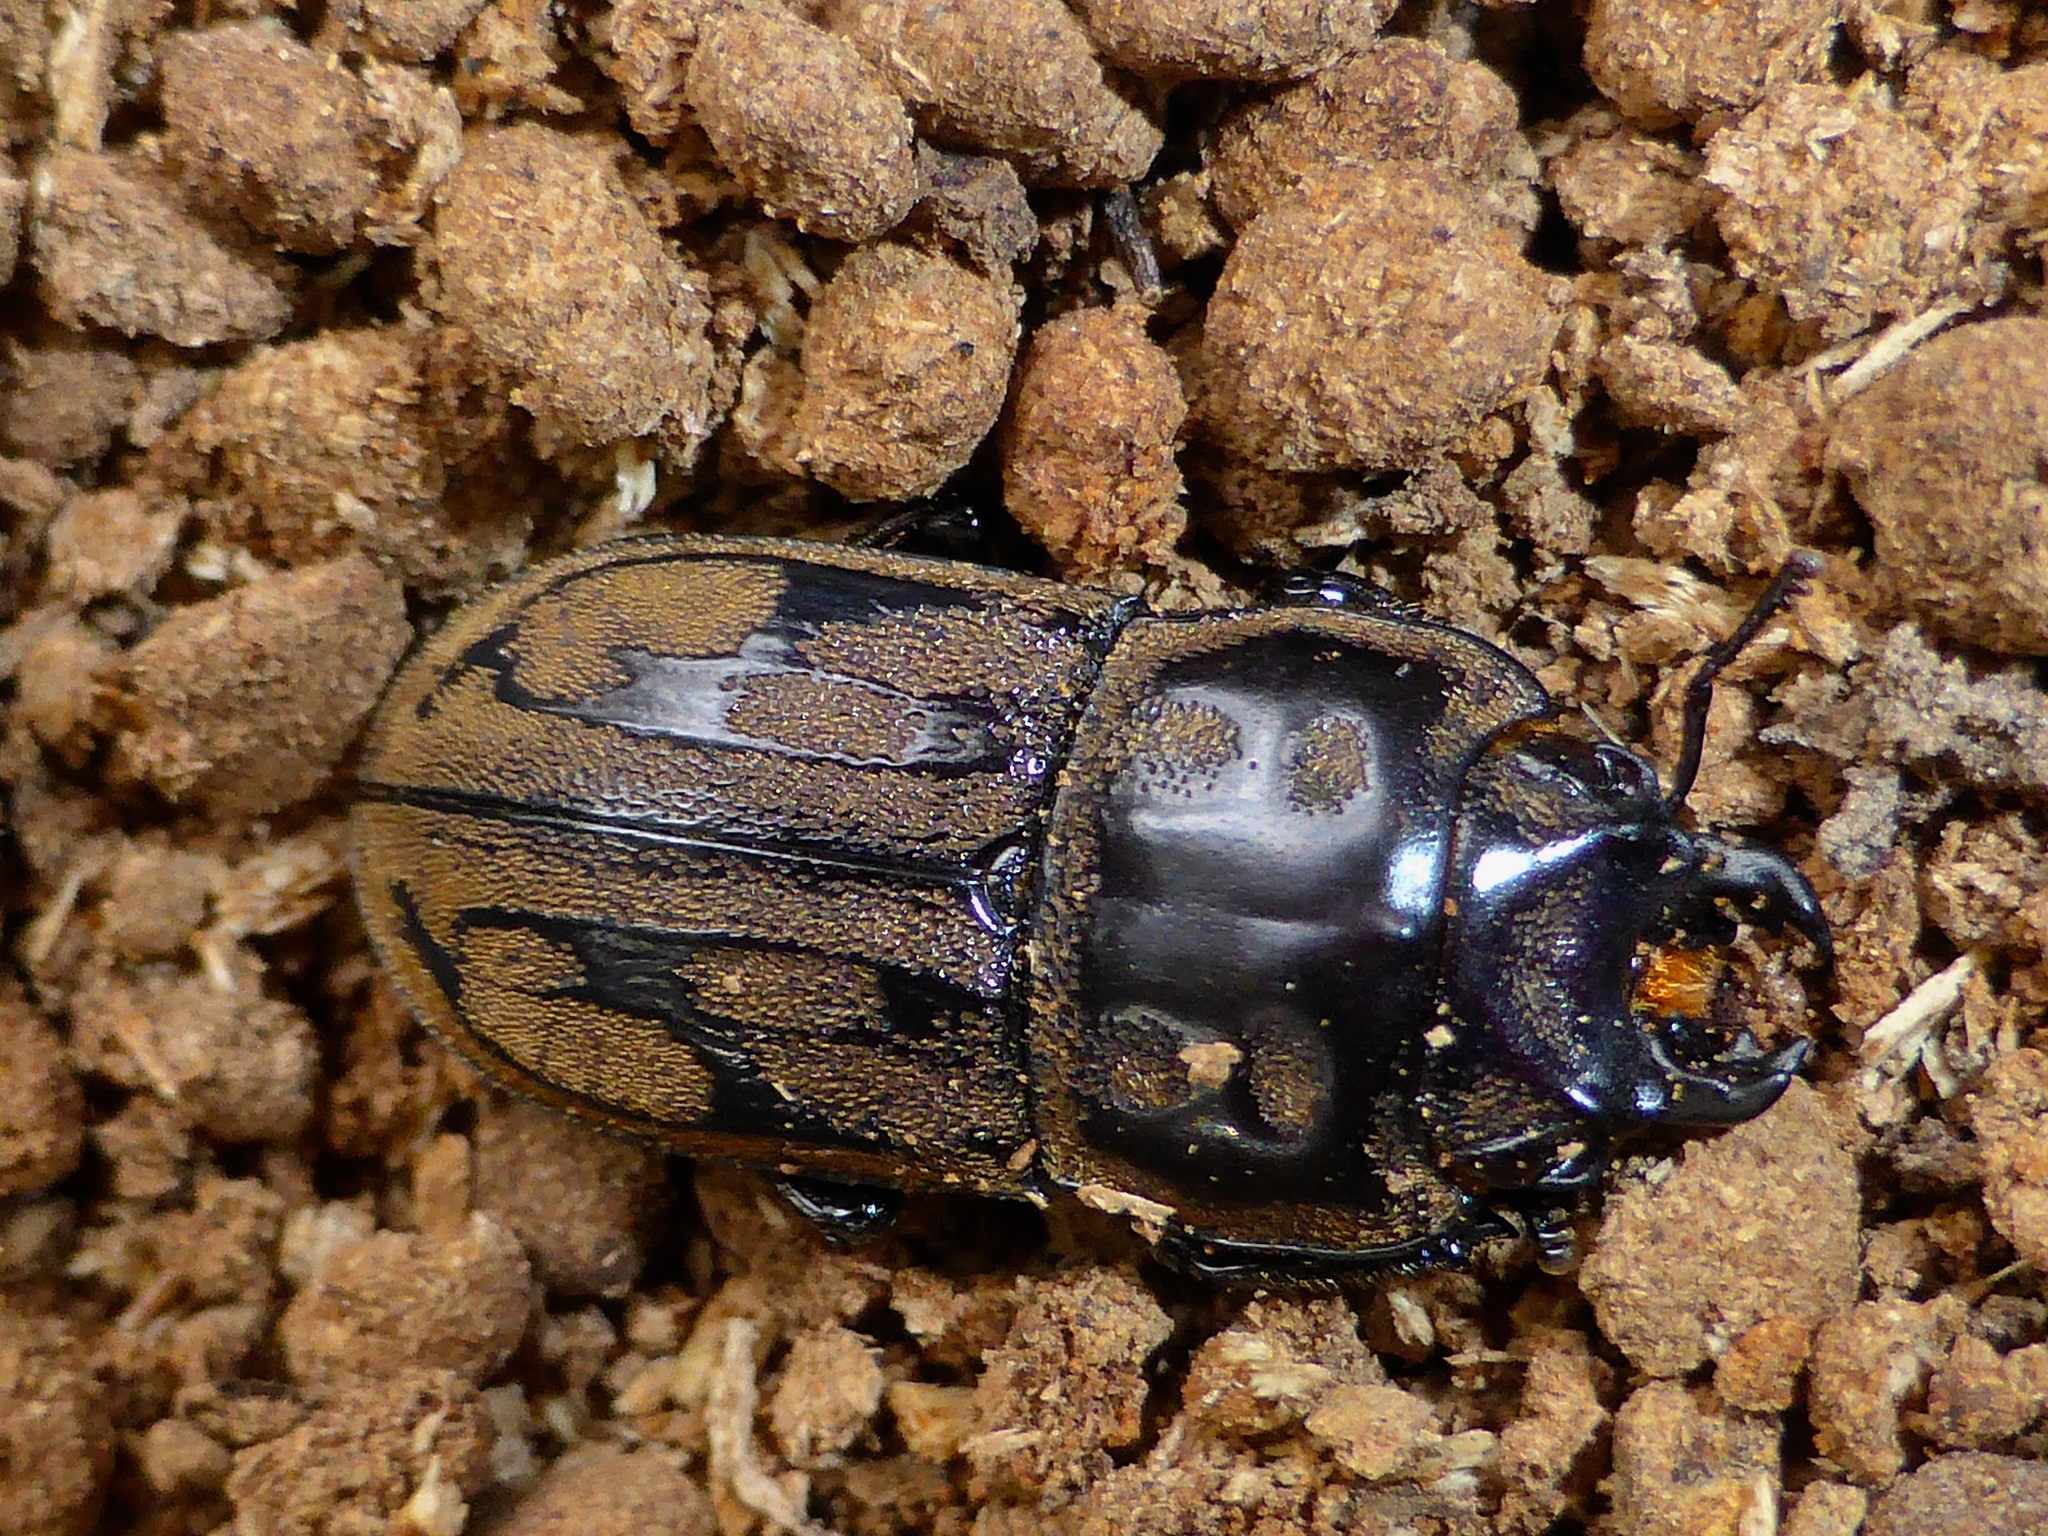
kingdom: Animalia
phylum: Arthropoda
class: Insecta
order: Coleoptera
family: Lucanidae
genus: Paralissotes
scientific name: Paralissotes reticulatus
